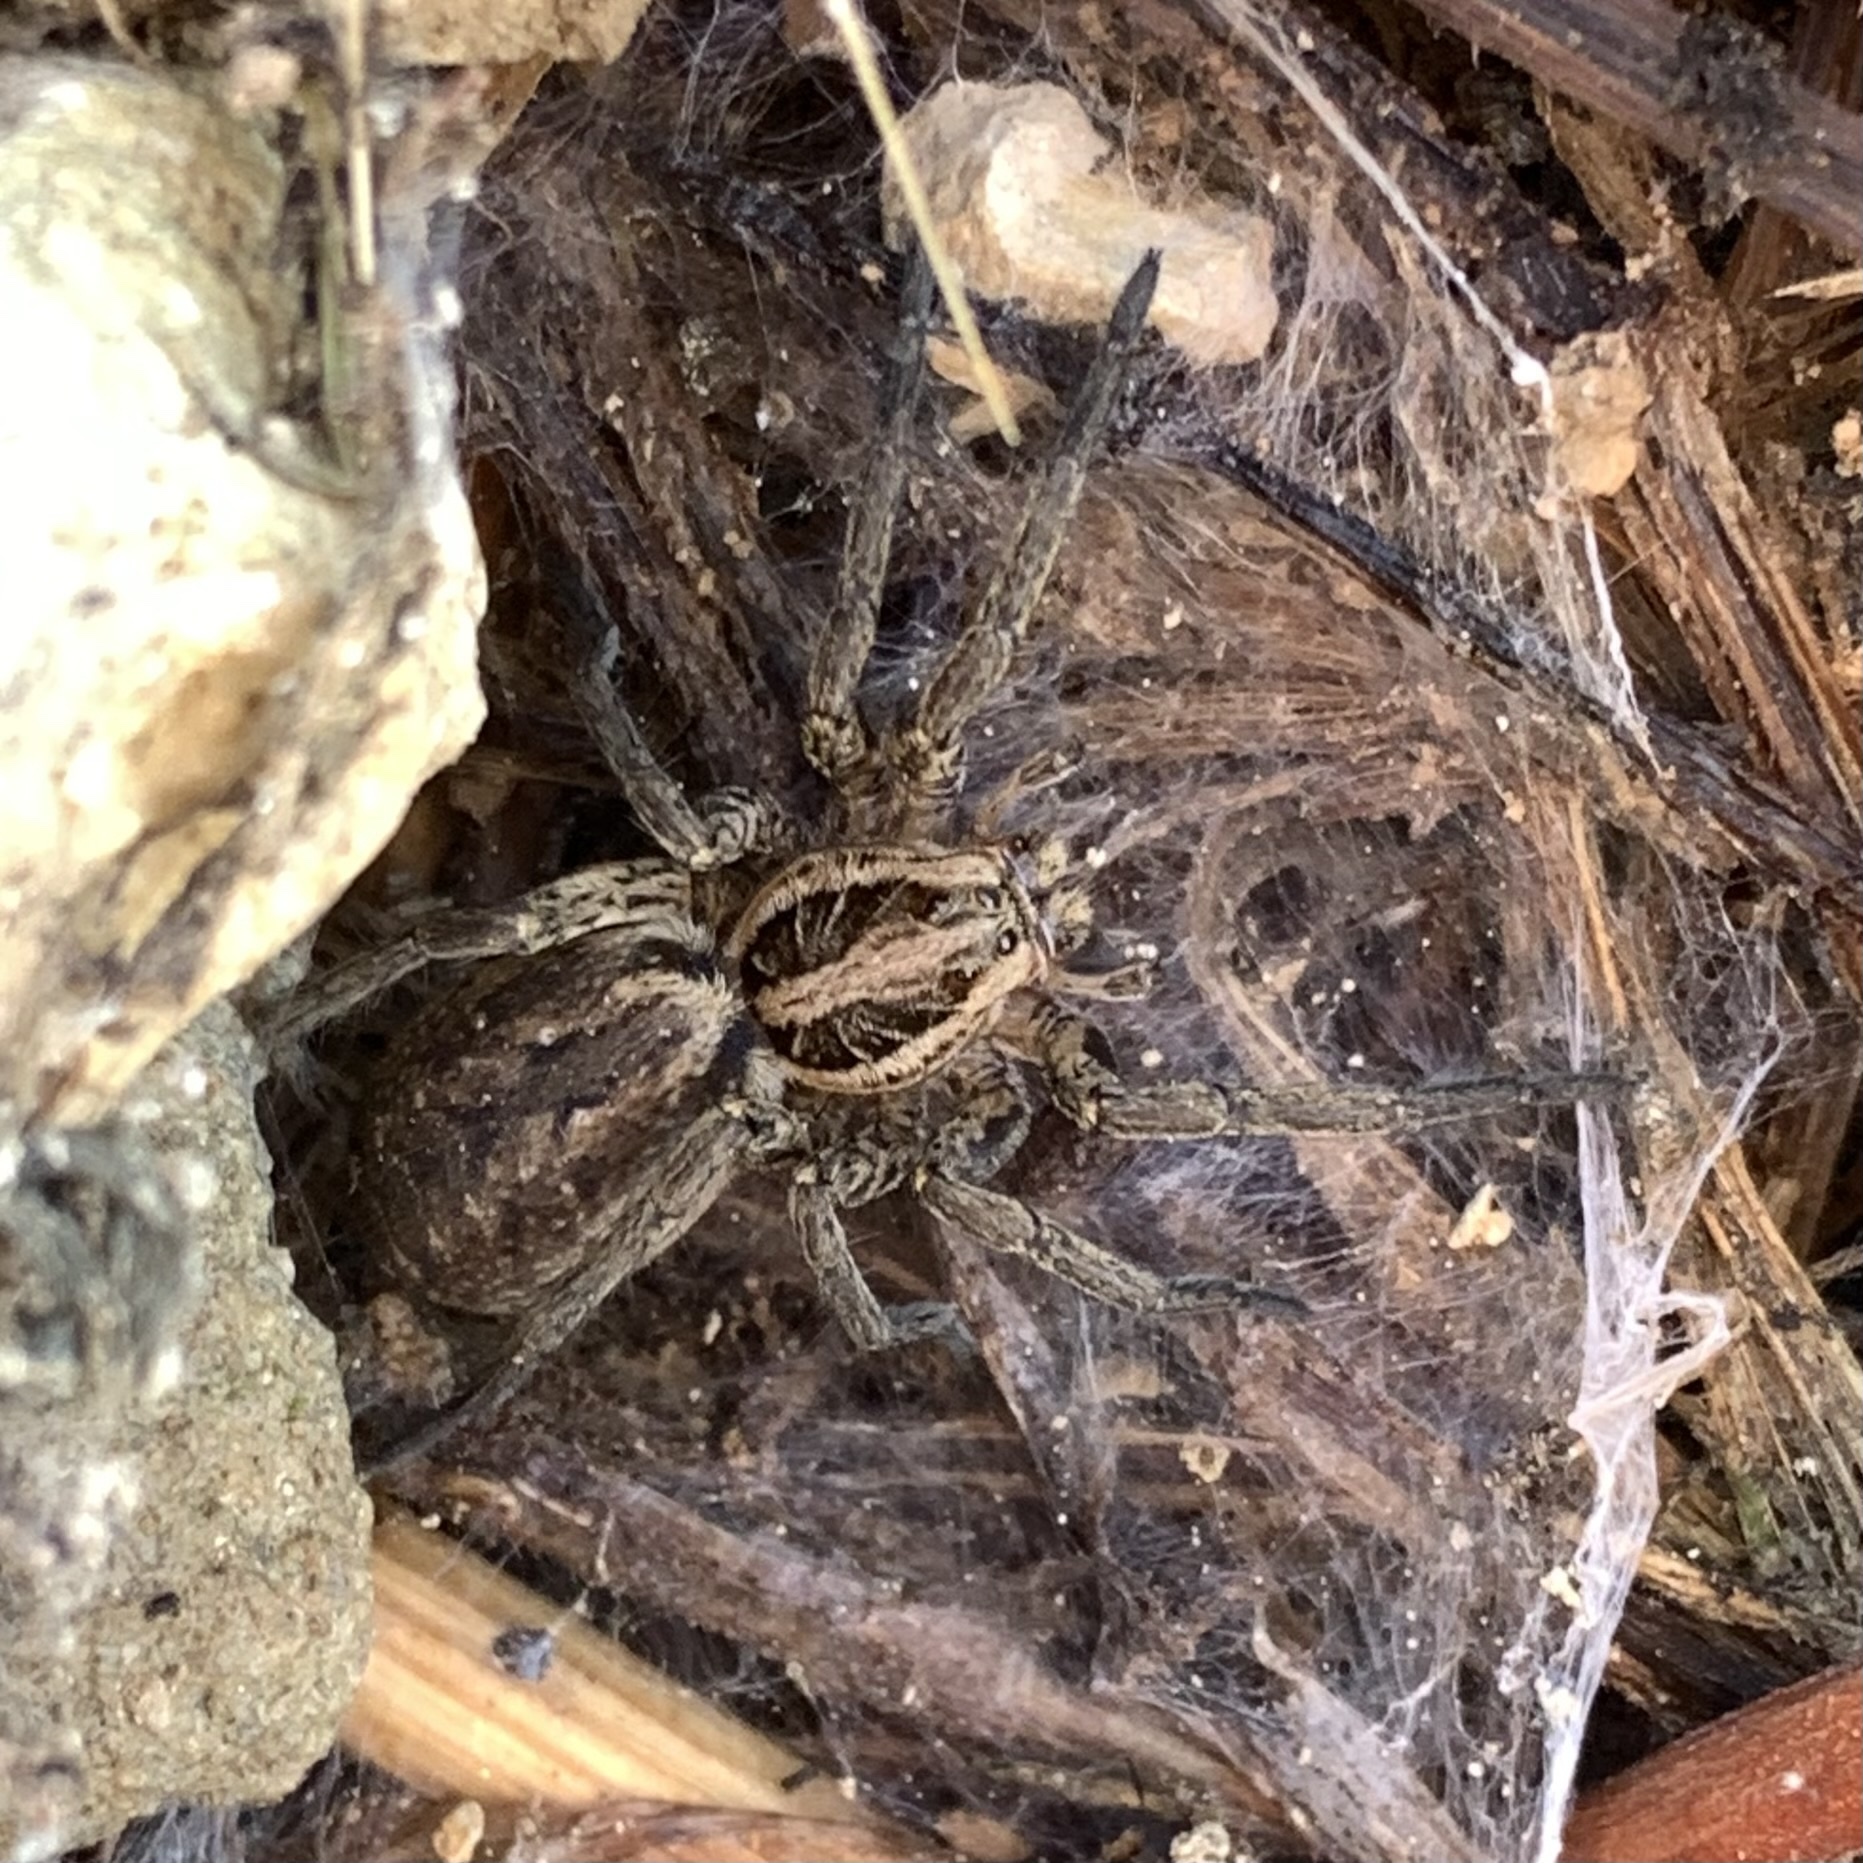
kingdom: Animalia
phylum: Arthropoda
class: Arachnida
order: Araneae
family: Lycosidae
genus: Hogna
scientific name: Hogna radiata
